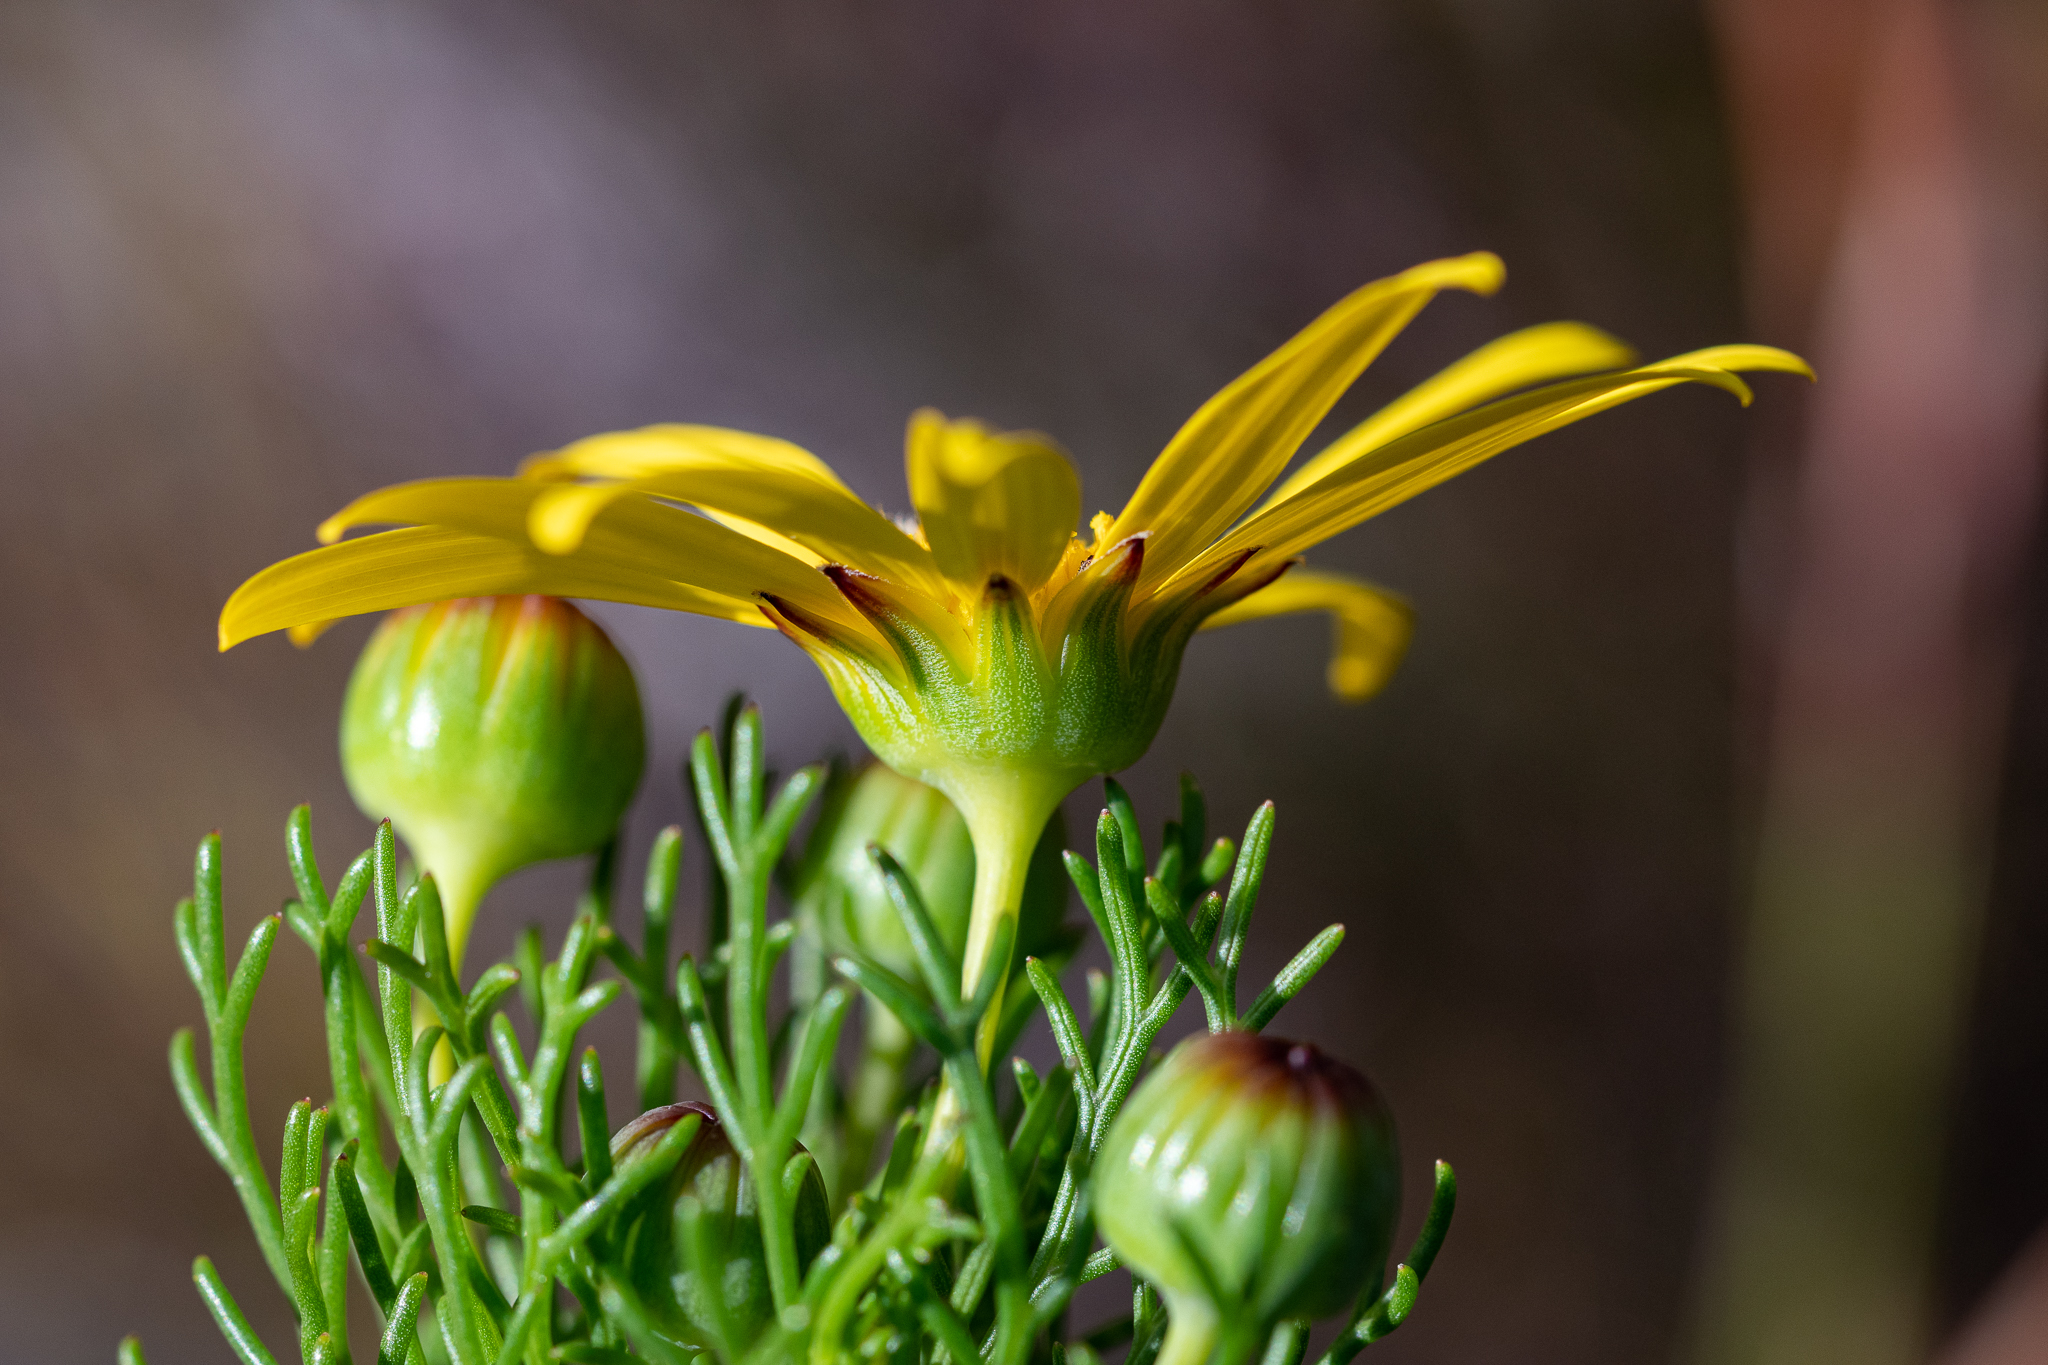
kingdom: Plantae
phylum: Tracheophyta
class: Magnoliopsida
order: Asterales
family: Asteraceae
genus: Euryops
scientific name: Euryops abrotanifolius
